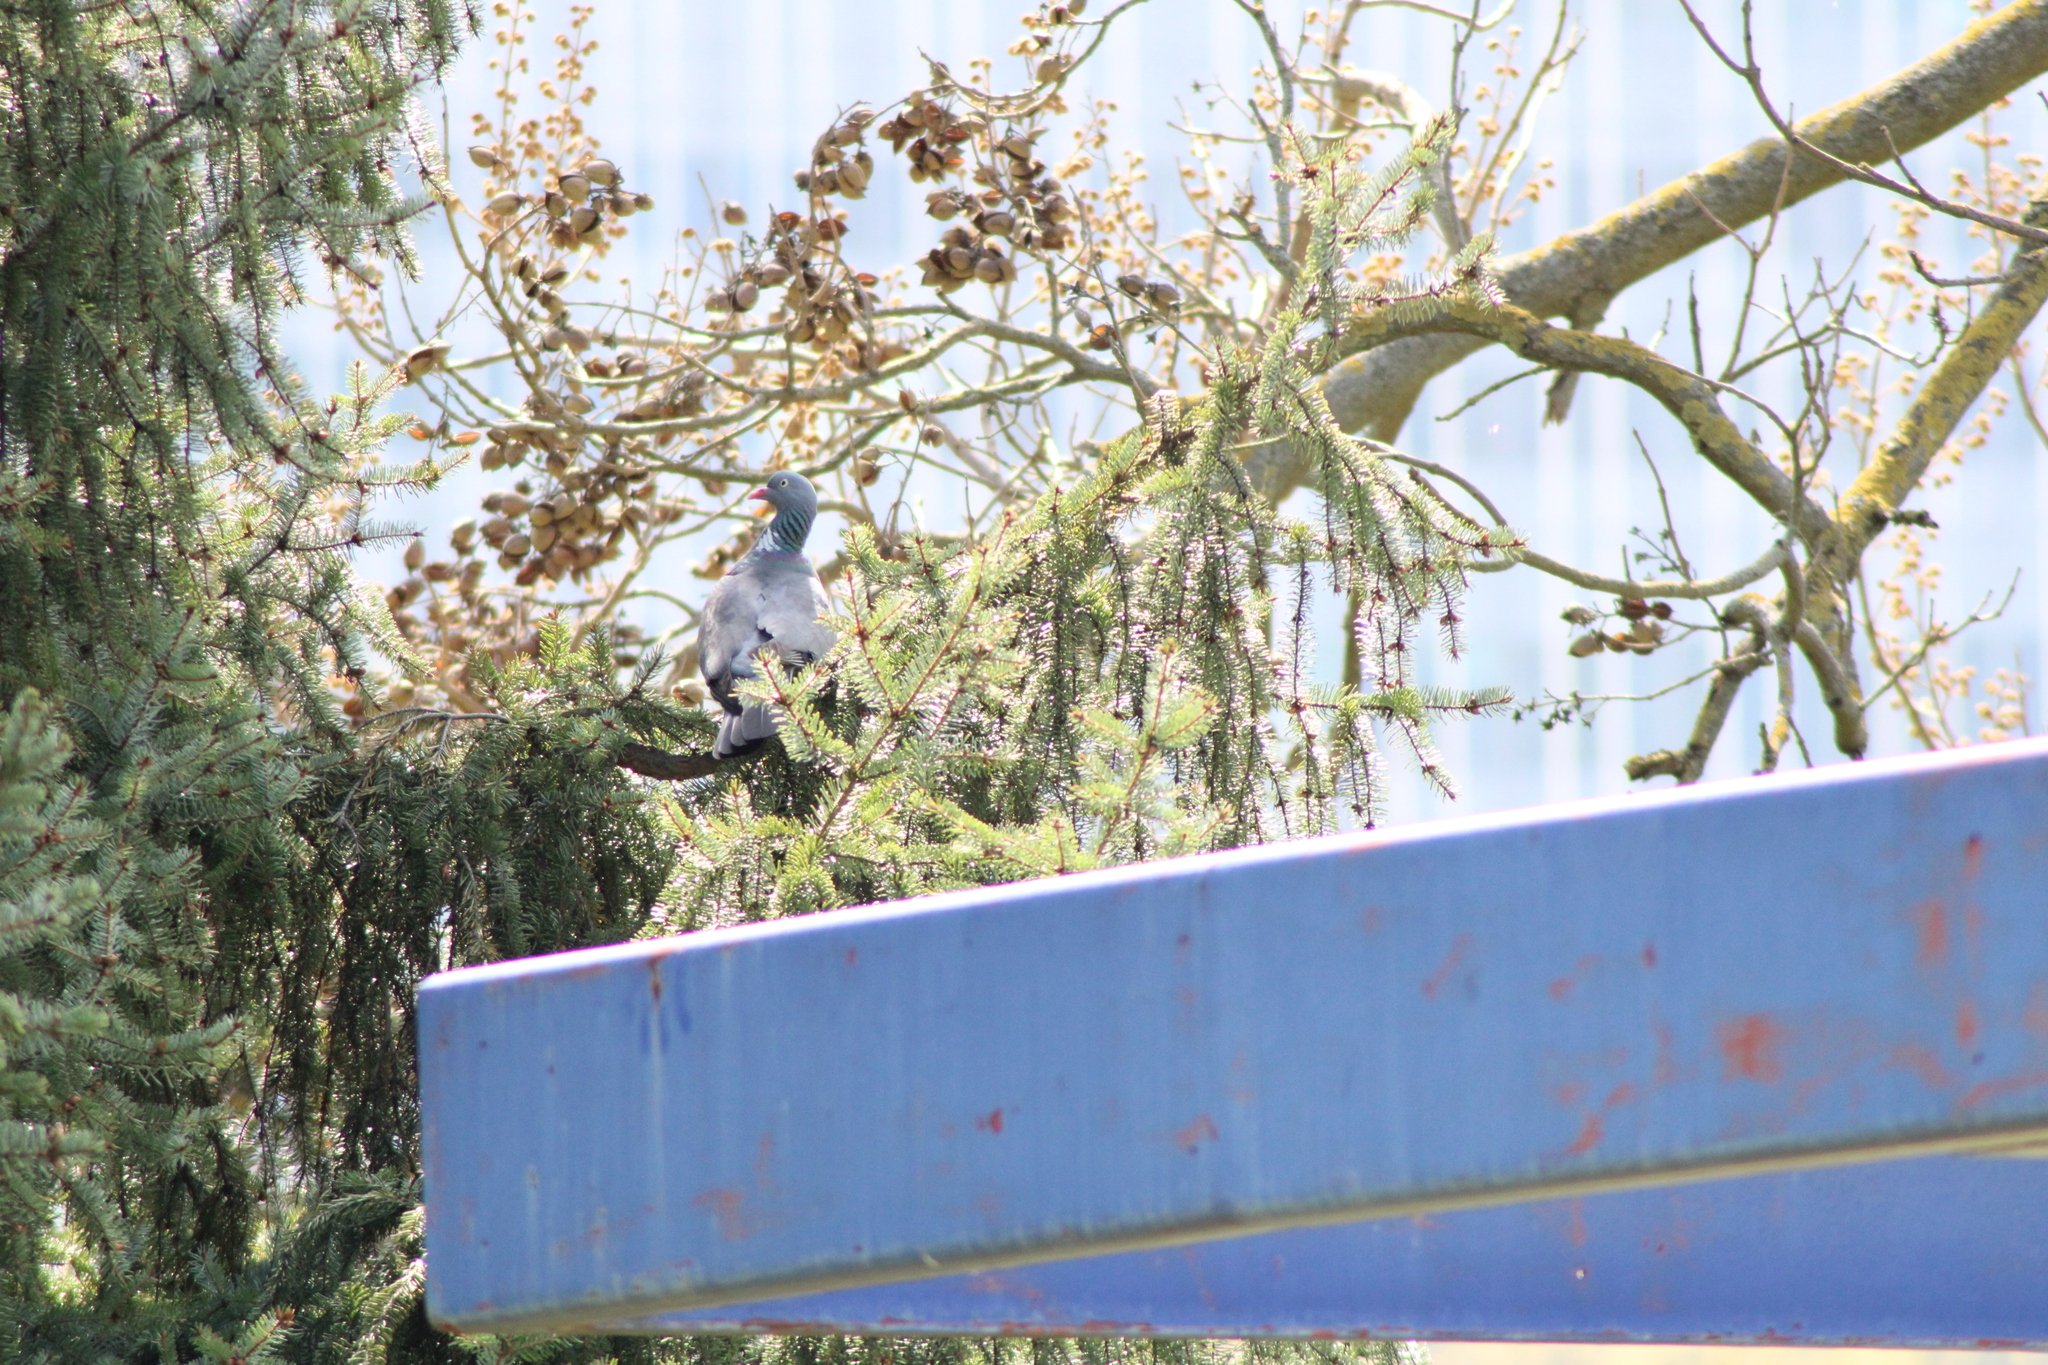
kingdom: Animalia
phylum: Chordata
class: Aves
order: Columbiformes
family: Columbidae
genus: Columba
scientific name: Columba palumbus
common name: Common wood pigeon
